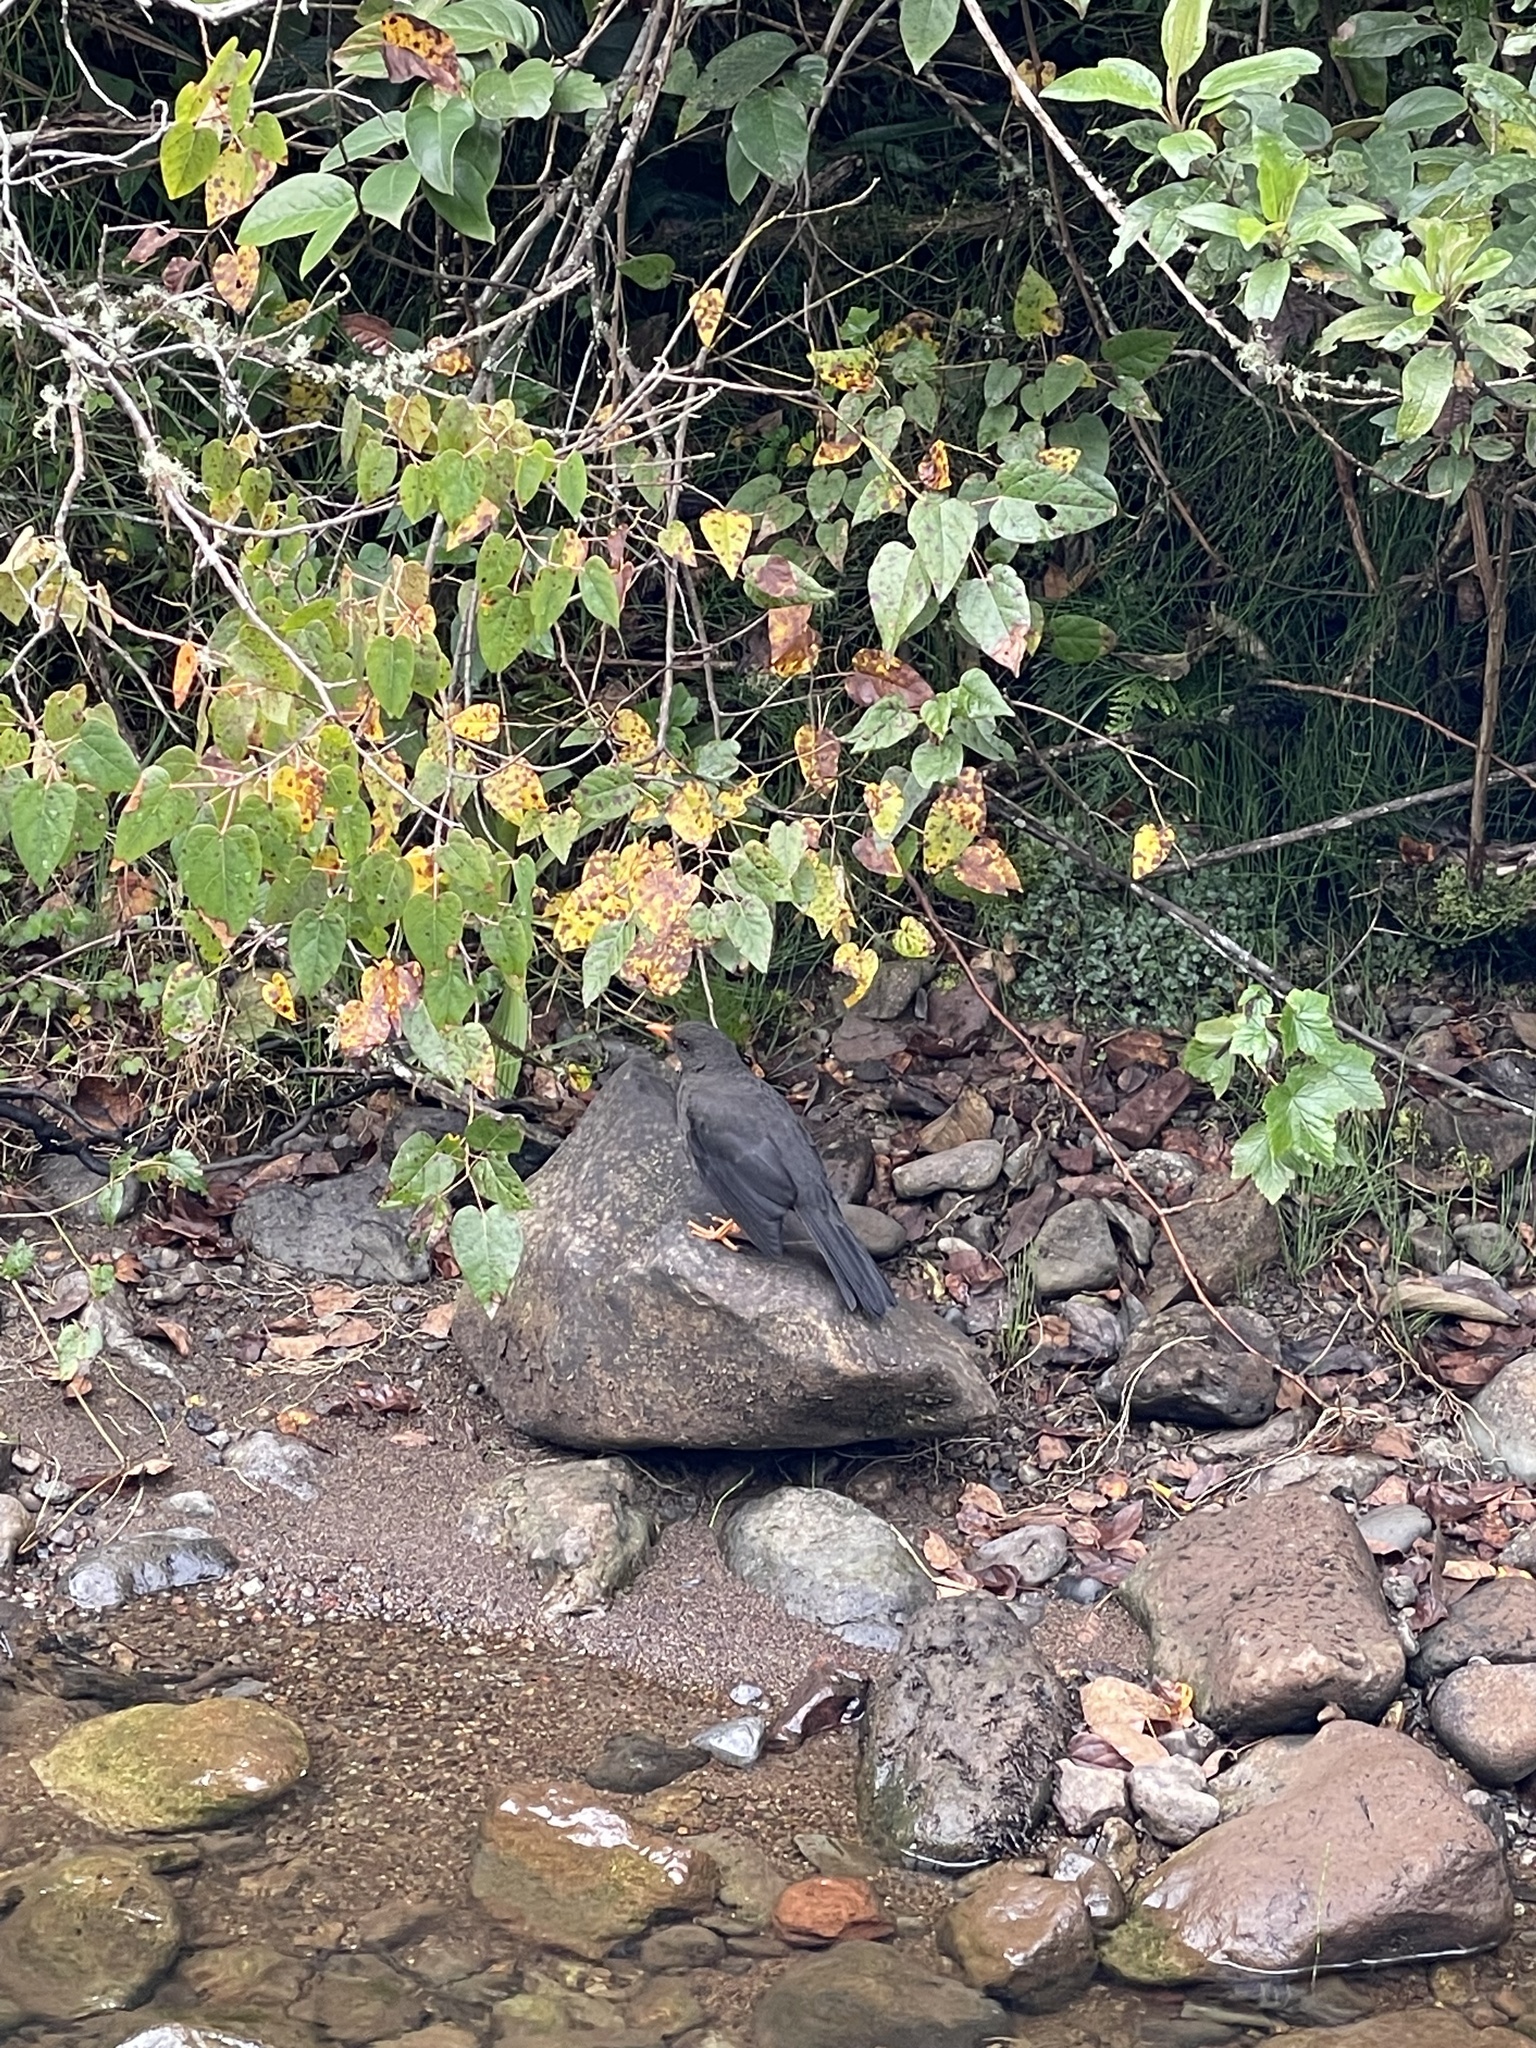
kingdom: Animalia
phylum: Chordata
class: Aves
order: Passeriformes
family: Turdidae
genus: Turdus
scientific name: Turdus fuscater
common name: Great thrush
